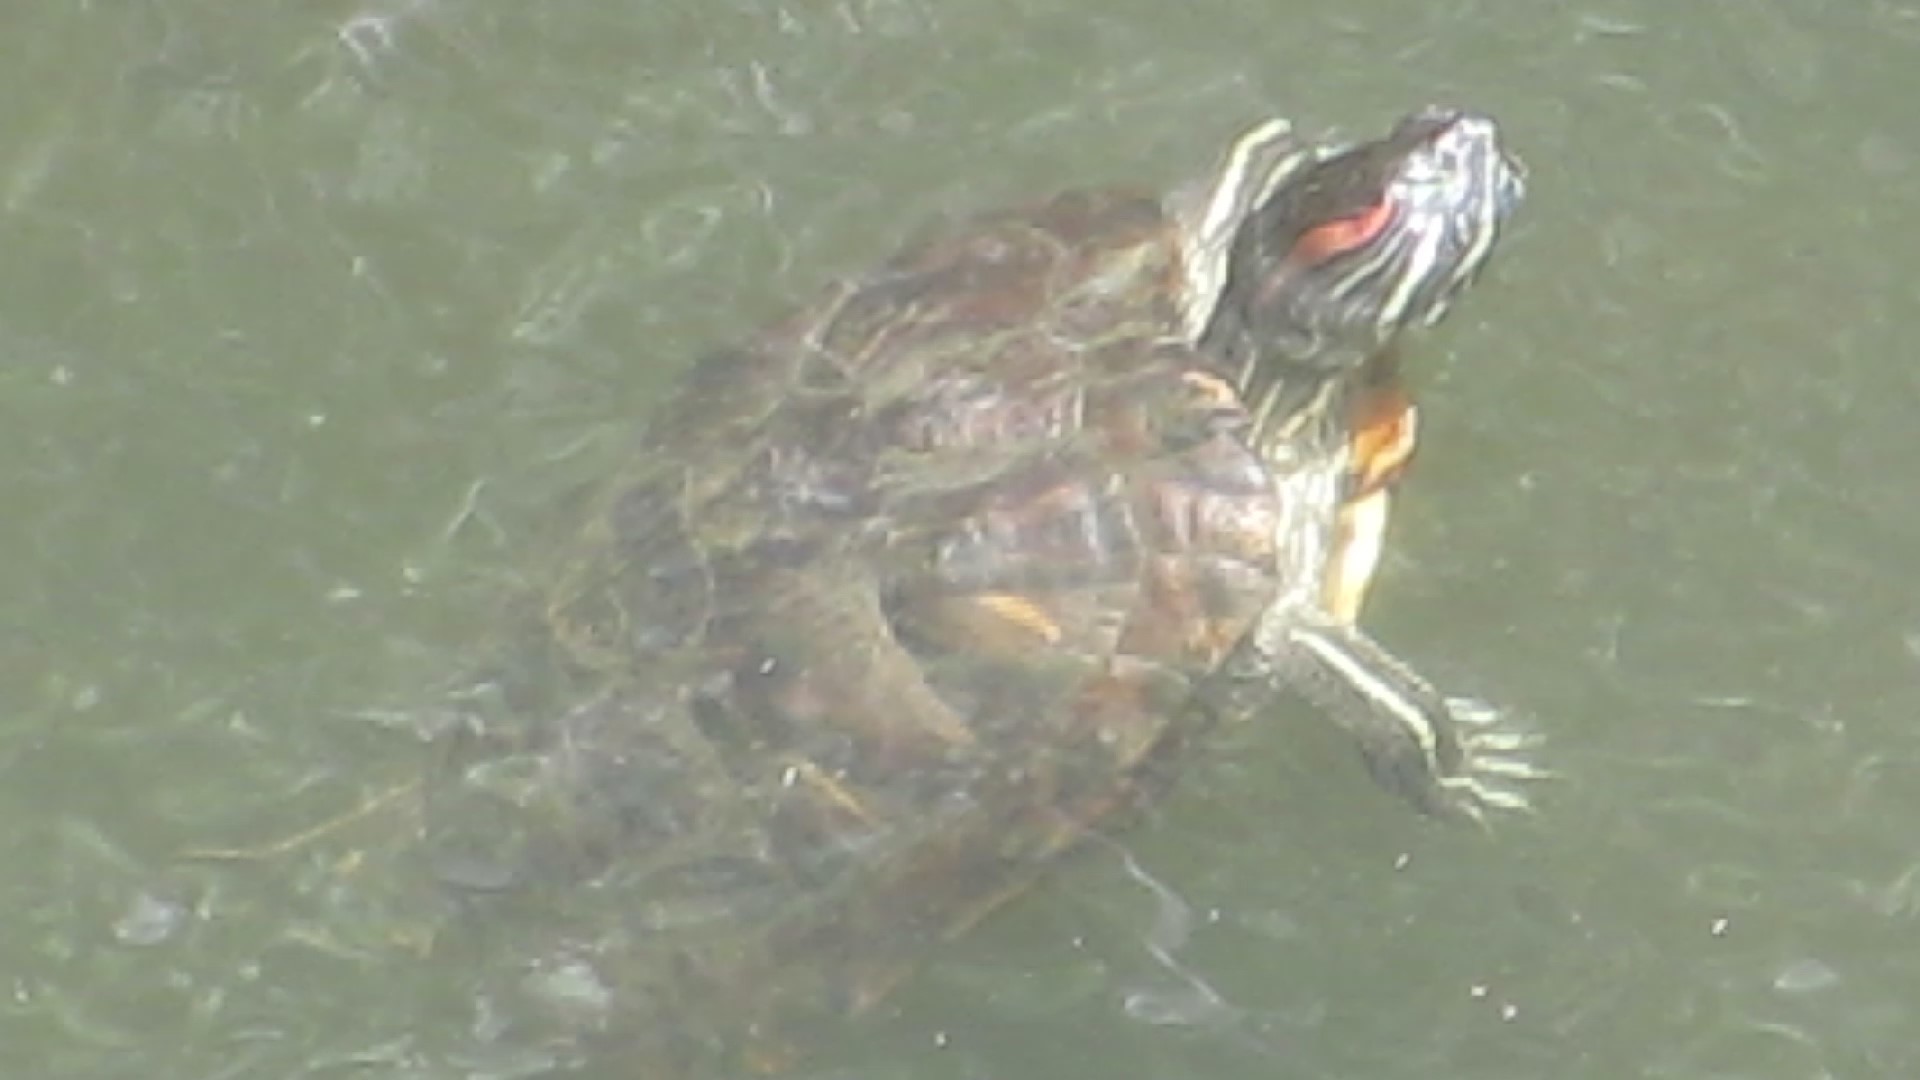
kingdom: Animalia
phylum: Chordata
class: Testudines
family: Emydidae
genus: Trachemys
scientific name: Trachemys scripta
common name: Slider
